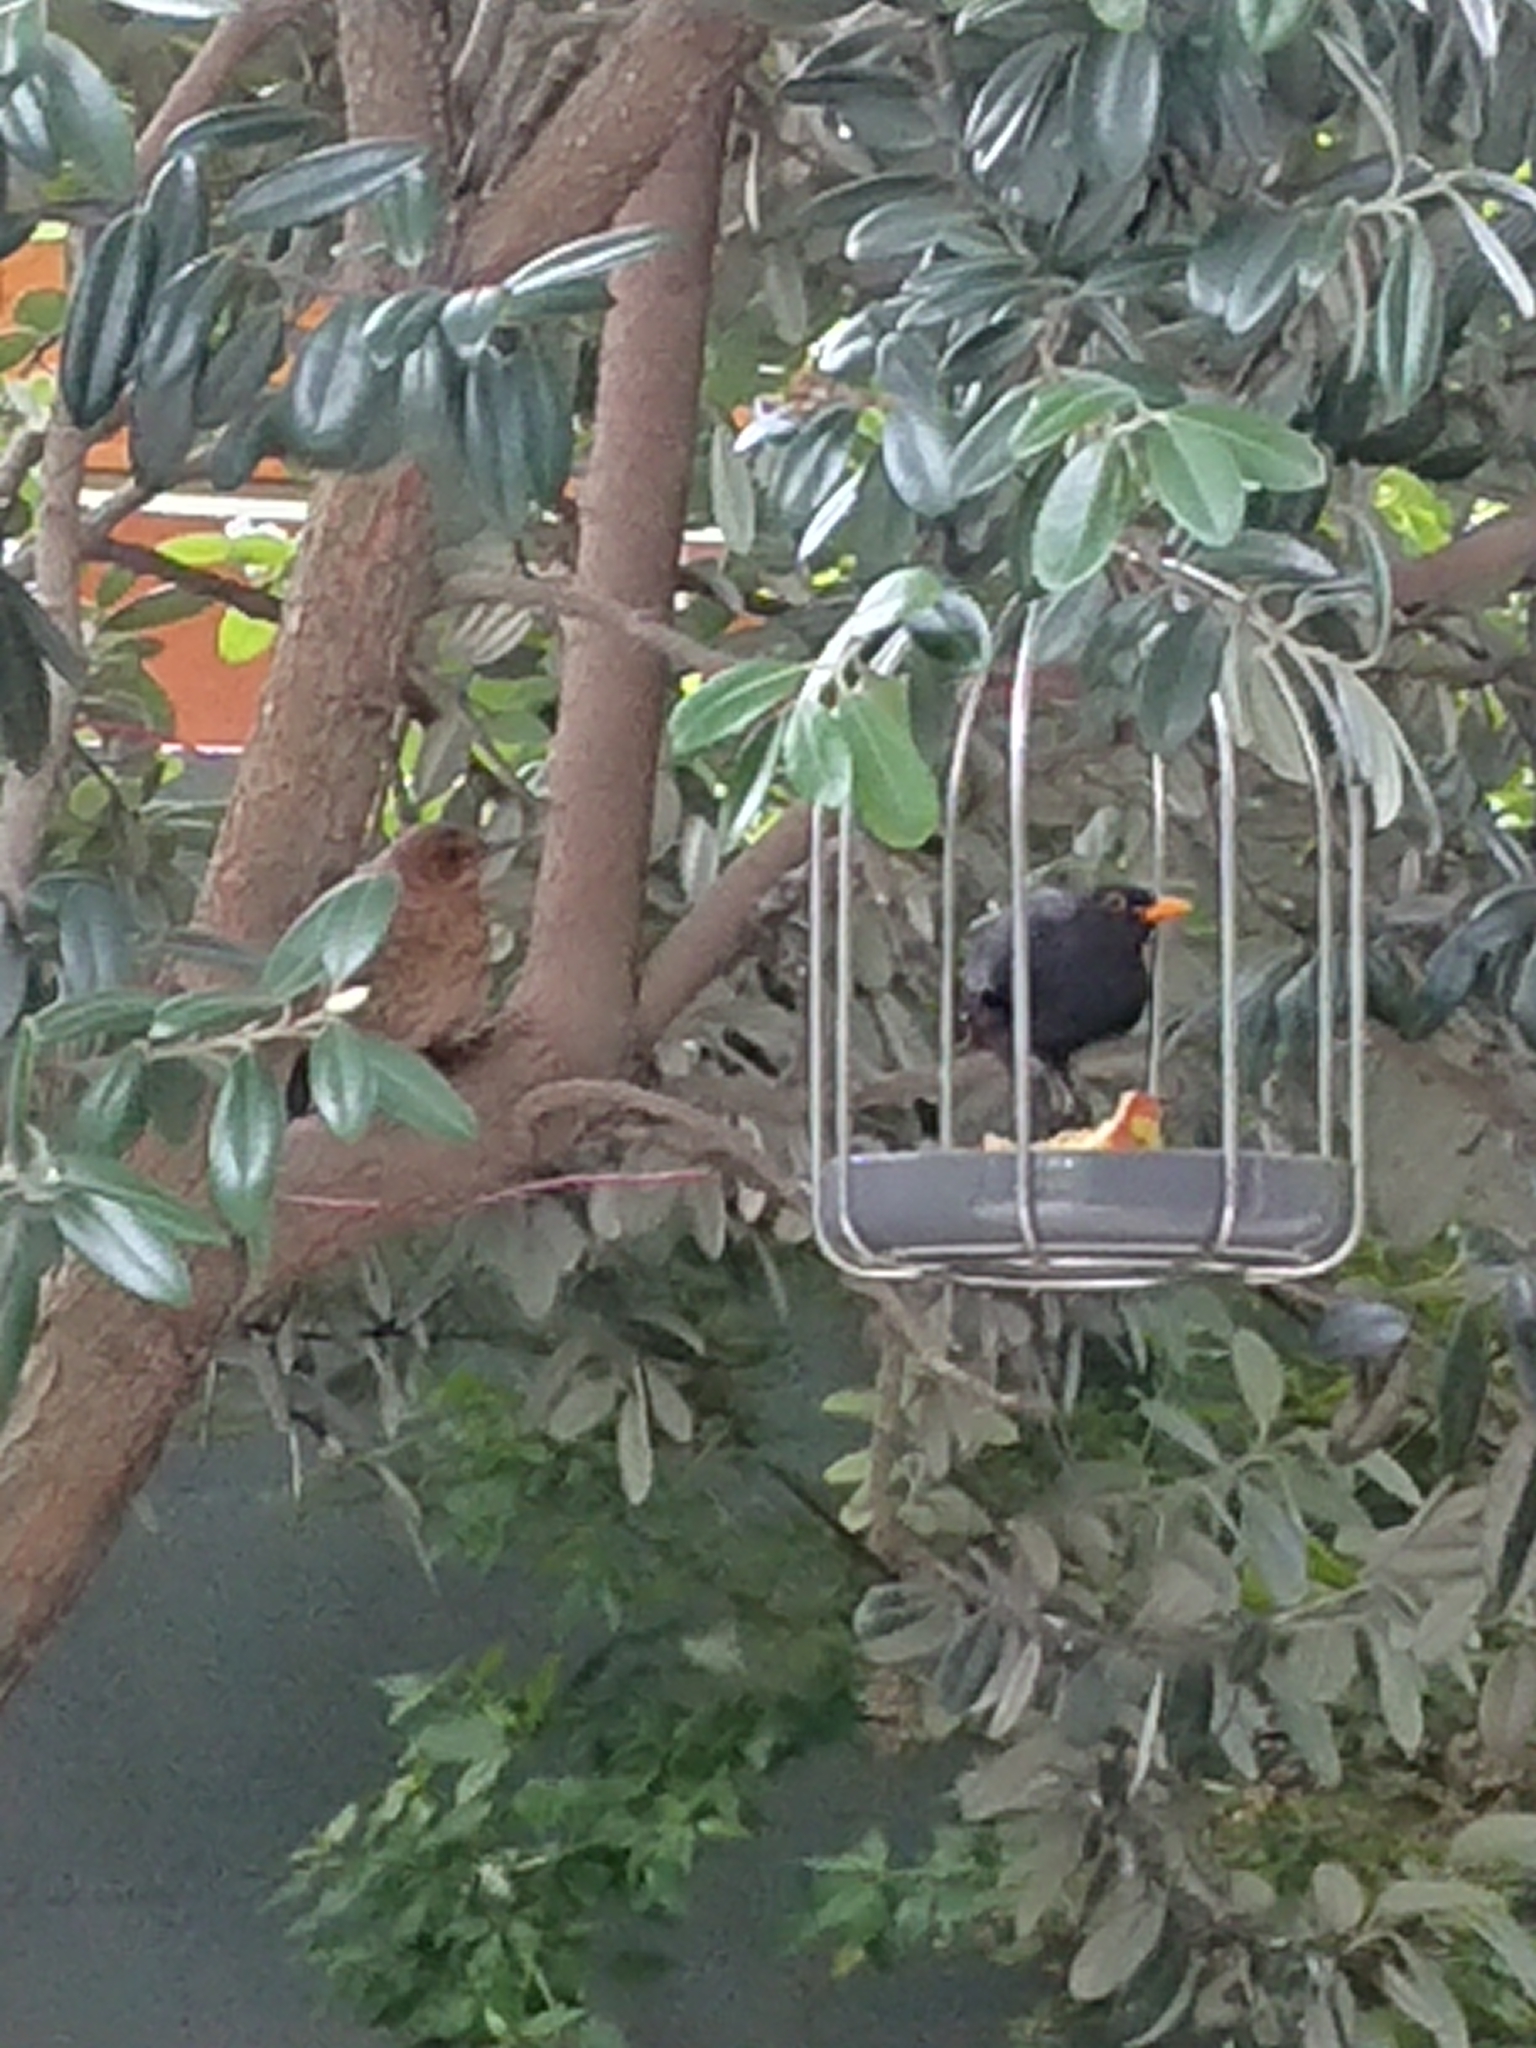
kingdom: Animalia
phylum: Chordata
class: Aves
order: Passeriformes
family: Turdidae
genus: Turdus
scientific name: Turdus merula
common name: Common blackbird
